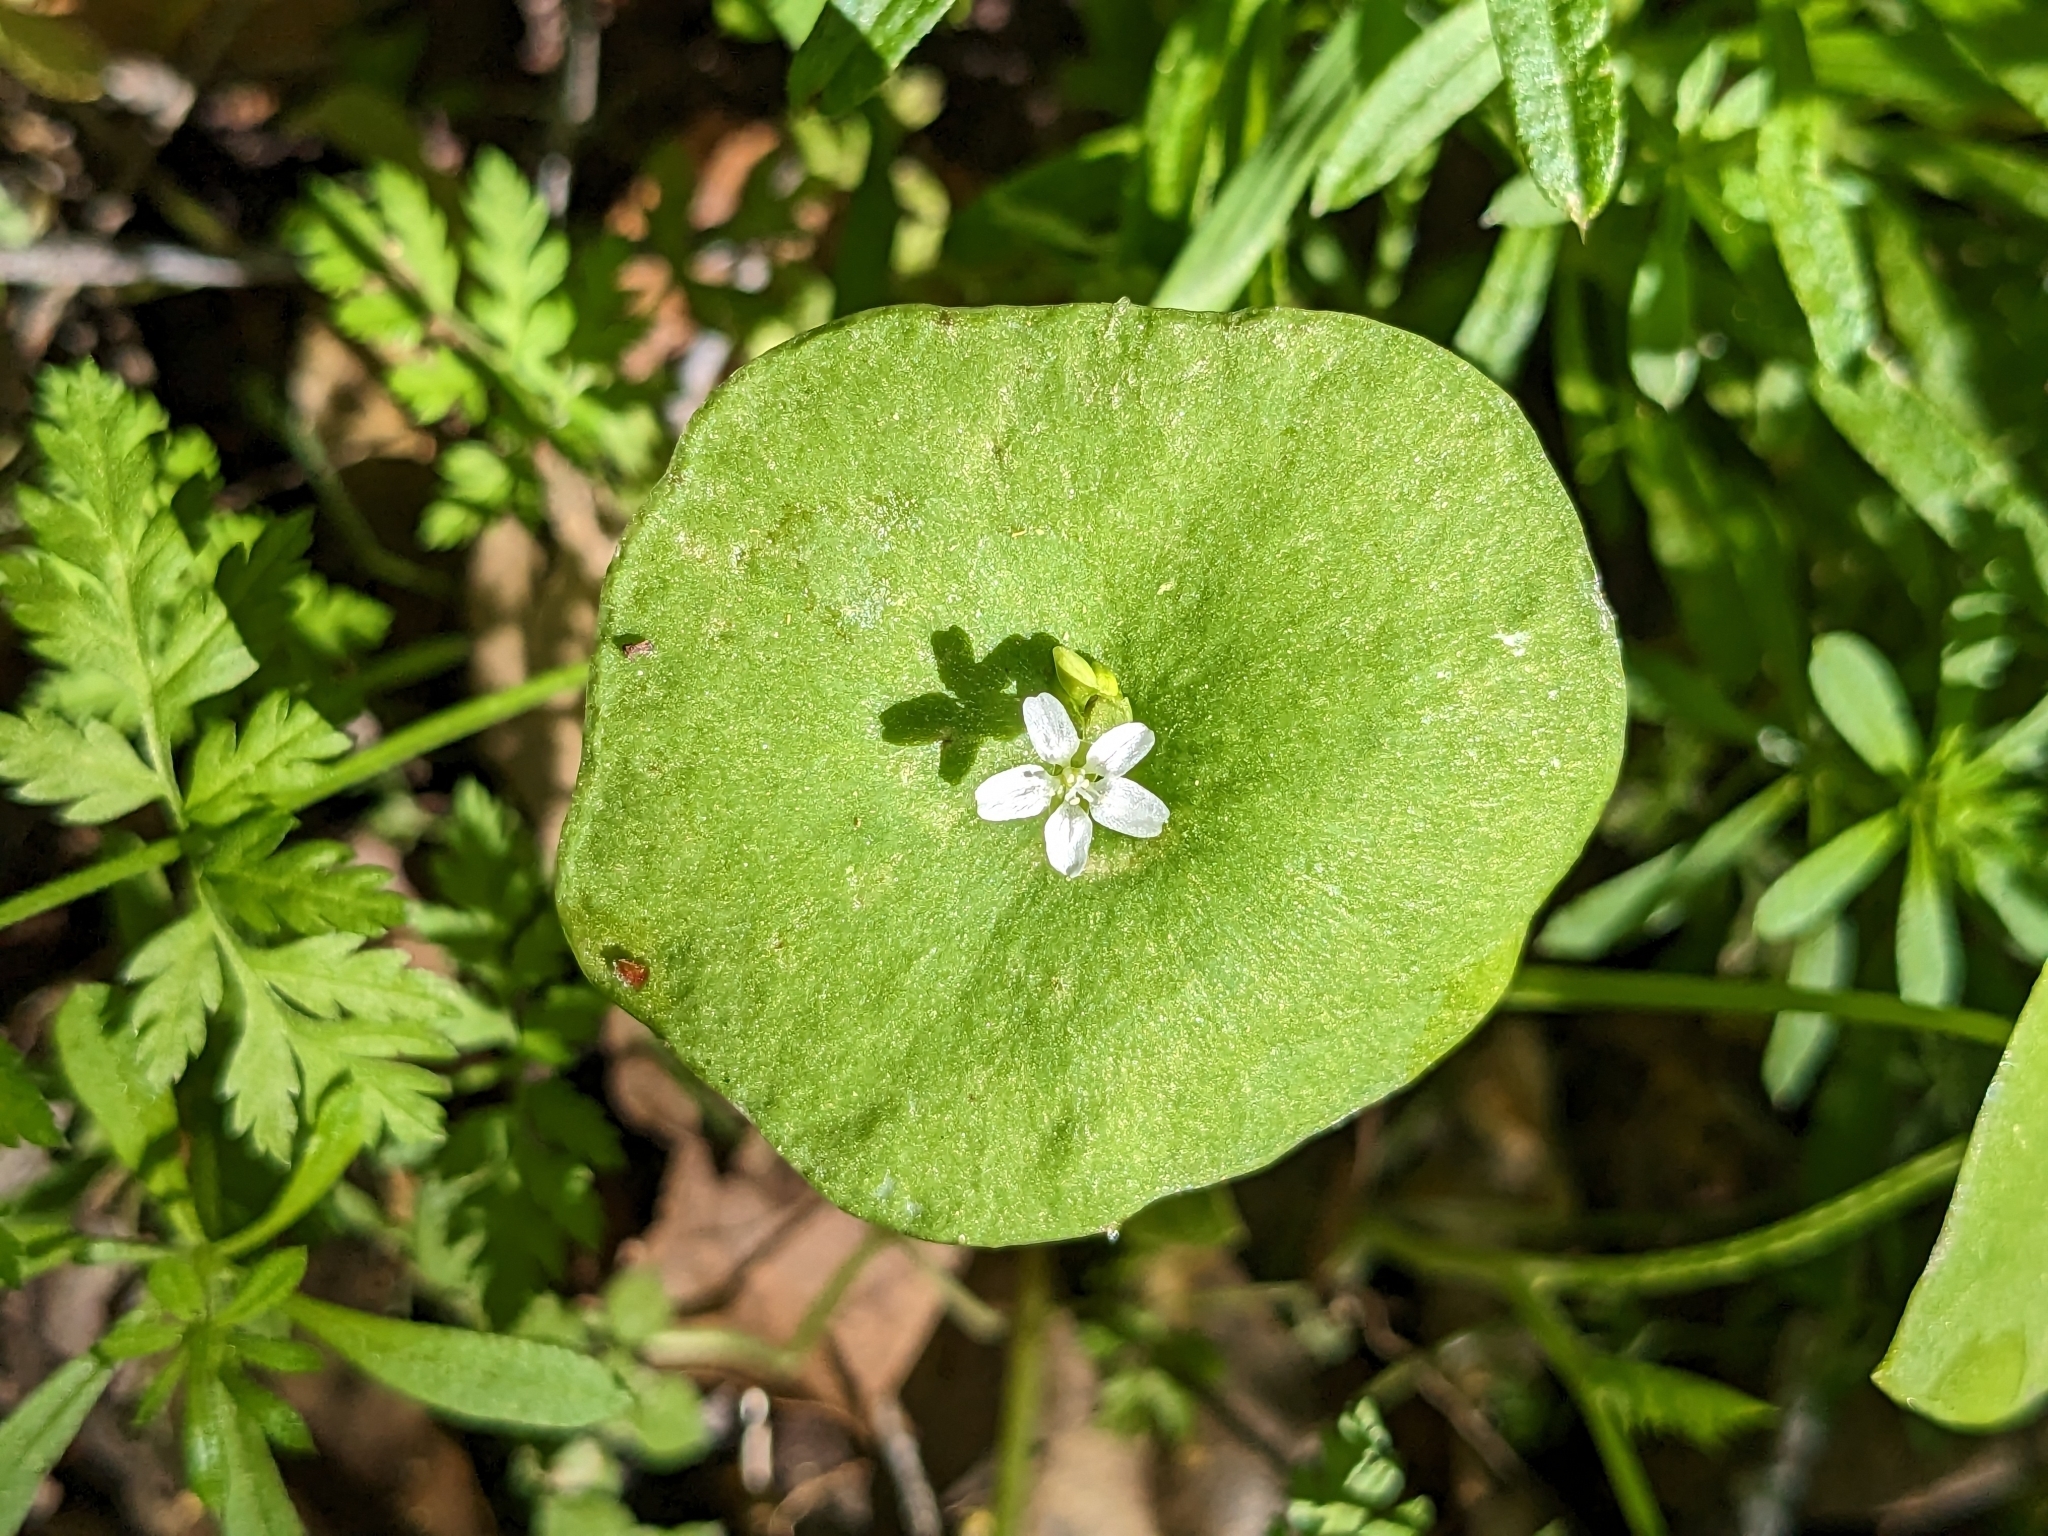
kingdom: Plantae
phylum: Tracheophyta
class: Magnoliopsida
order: Caryophyllales
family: Montiaceae
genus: Claytonia
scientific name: Claytonia perfoliata
